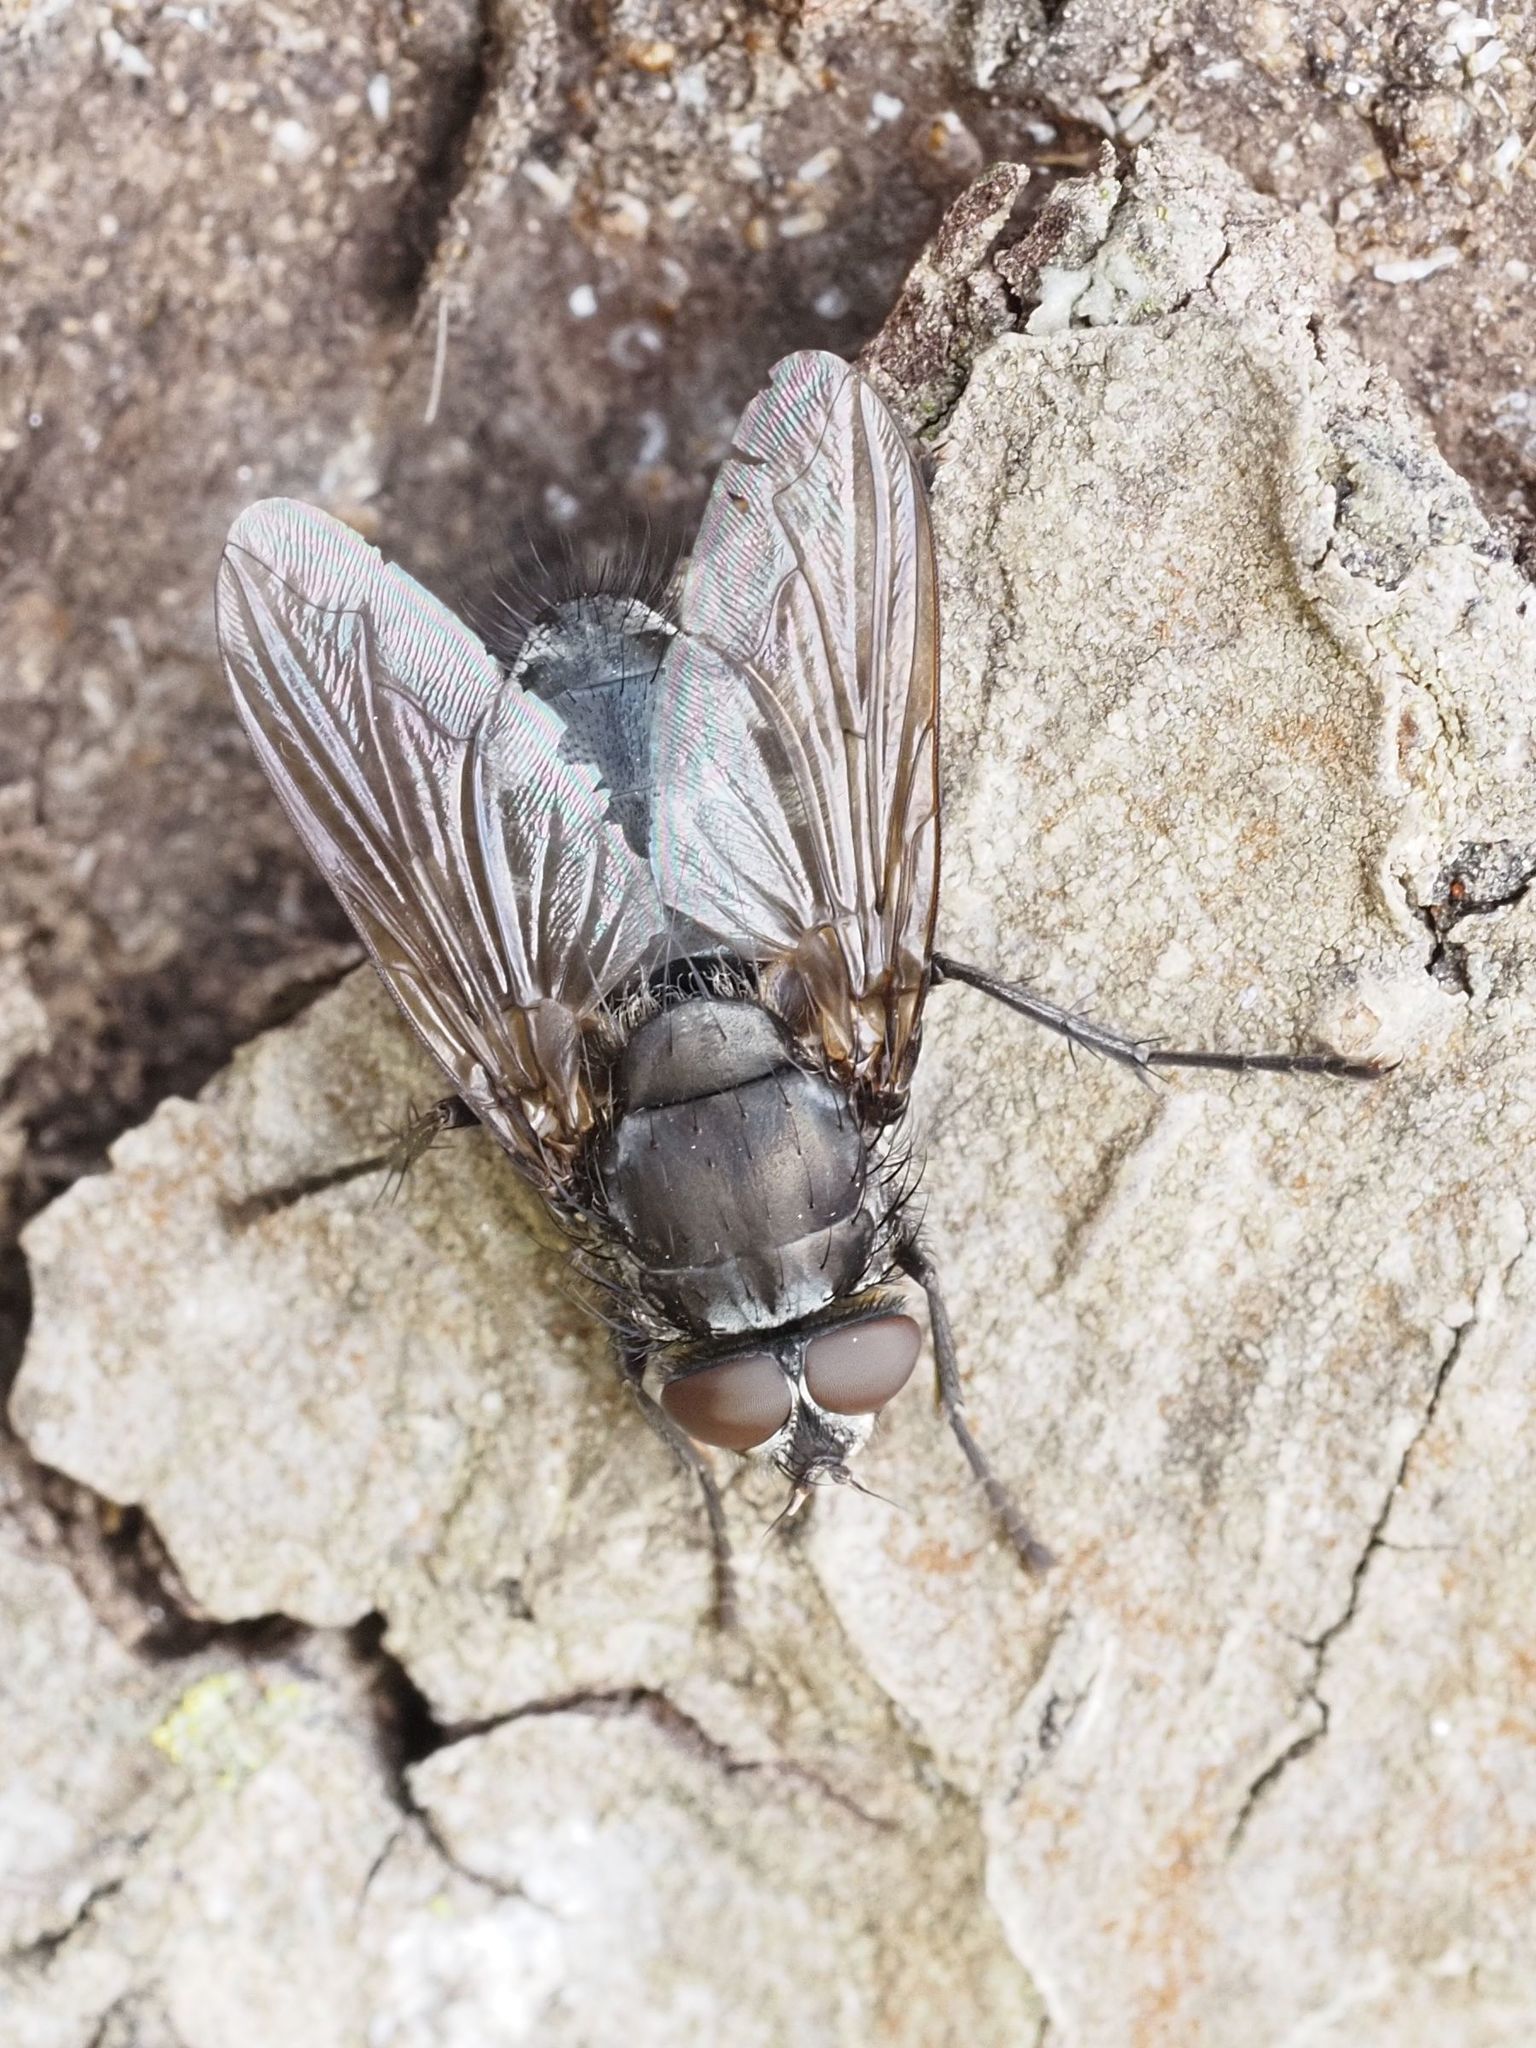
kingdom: Animalia
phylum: Arthropoda
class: Insecta
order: Diptera
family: Polleniidae
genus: Pollenia
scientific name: Pollenia vagabunda
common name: Vagabund cluster fly
